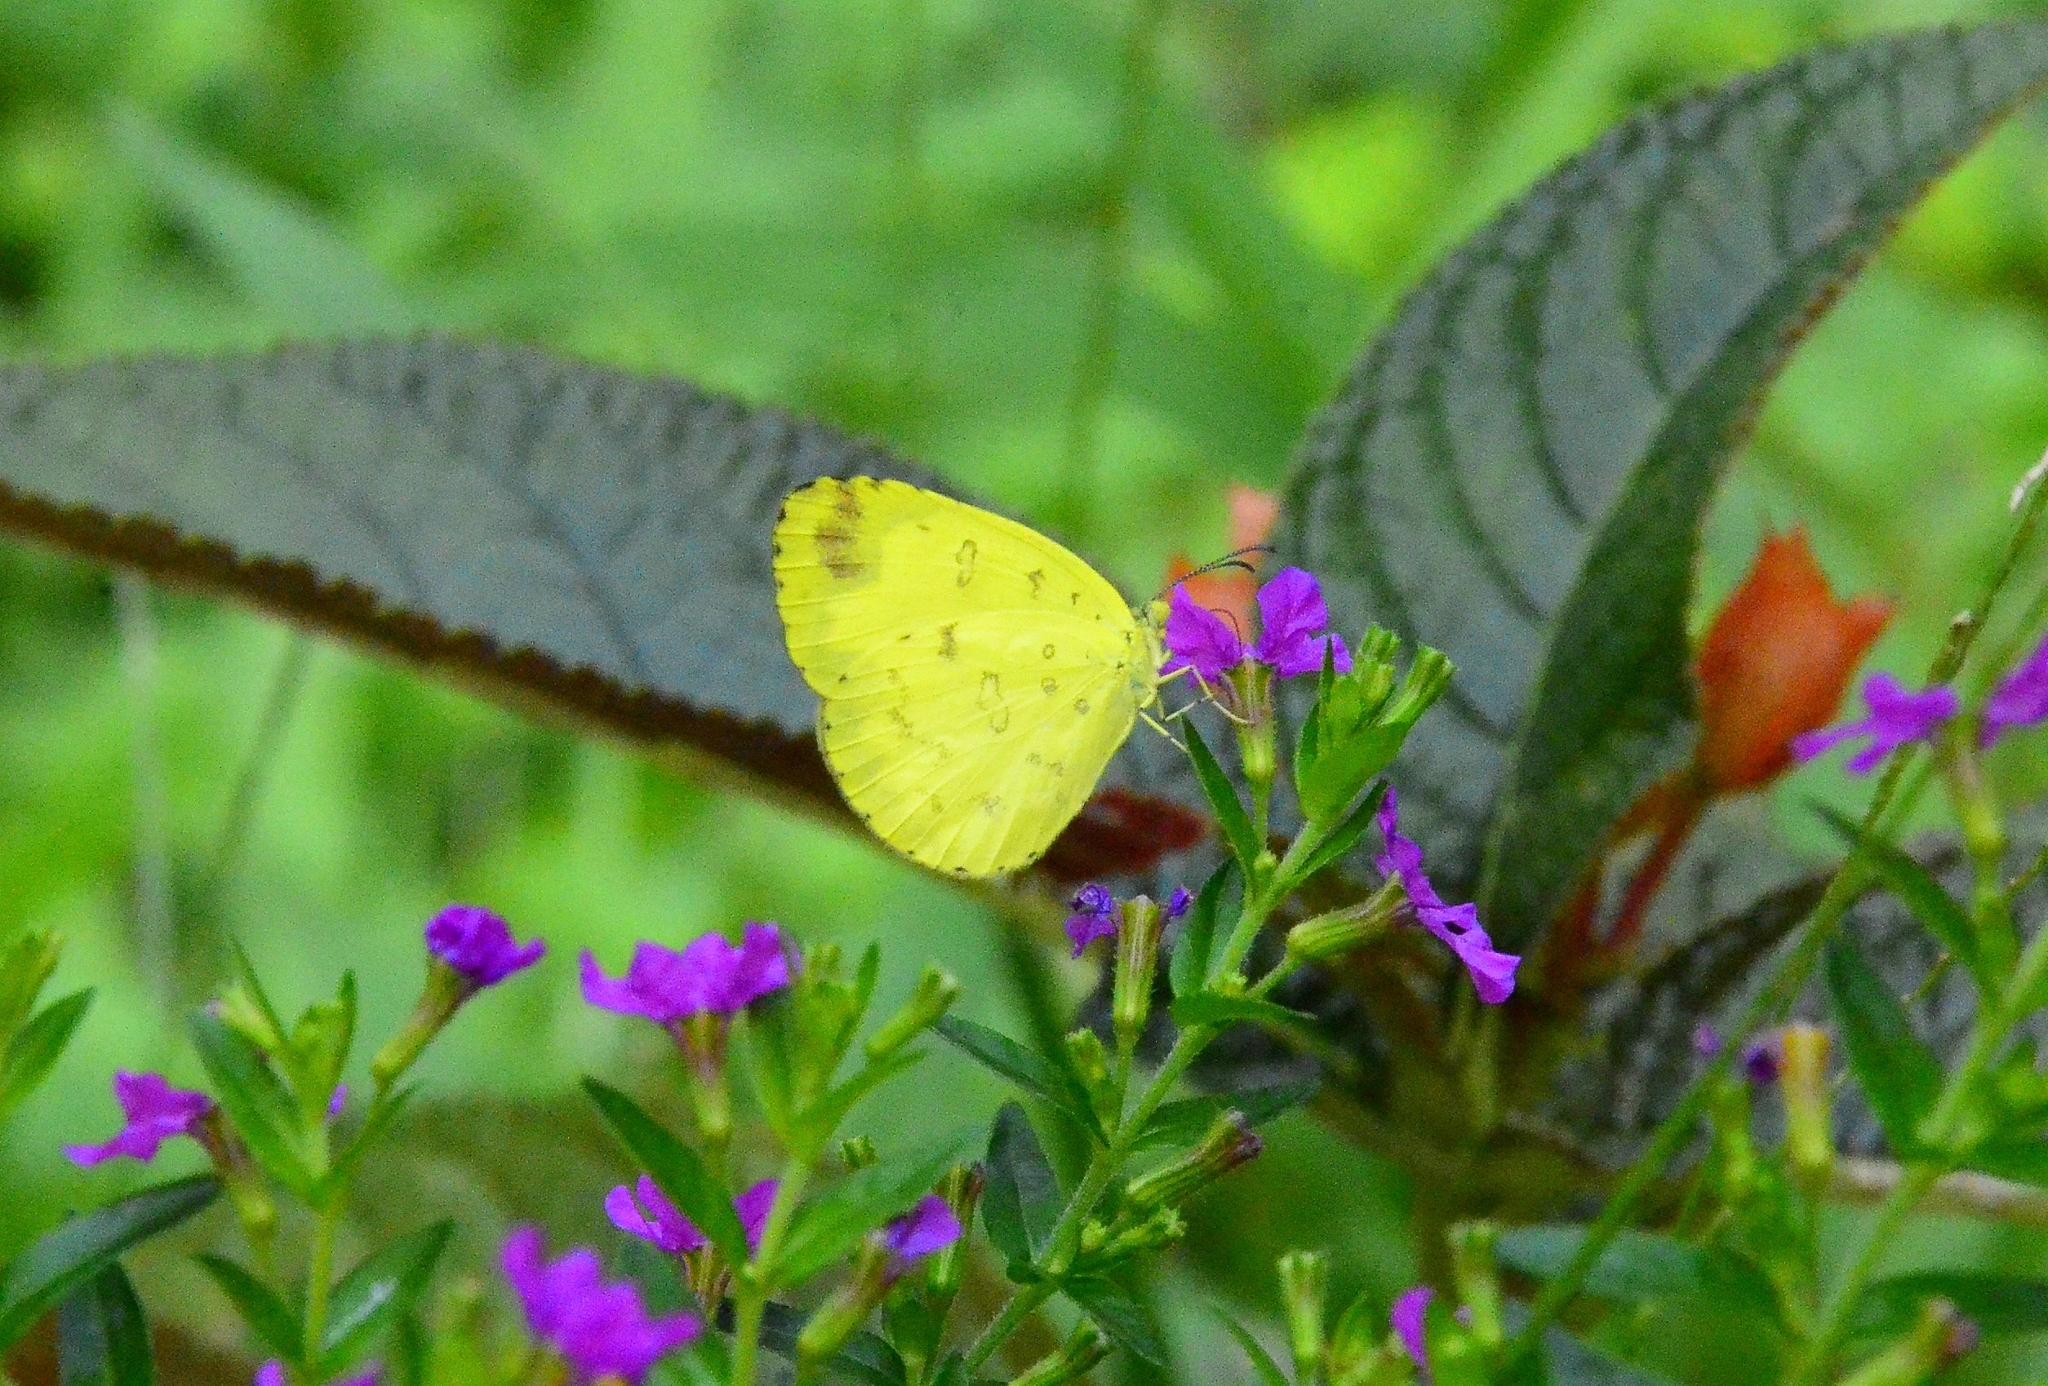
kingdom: Animalia
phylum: Arthropoda
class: Insecta
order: Lepidoptera
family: Pieridae
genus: Eurema
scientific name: Eurema blanda
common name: Three-spot grass yellow
